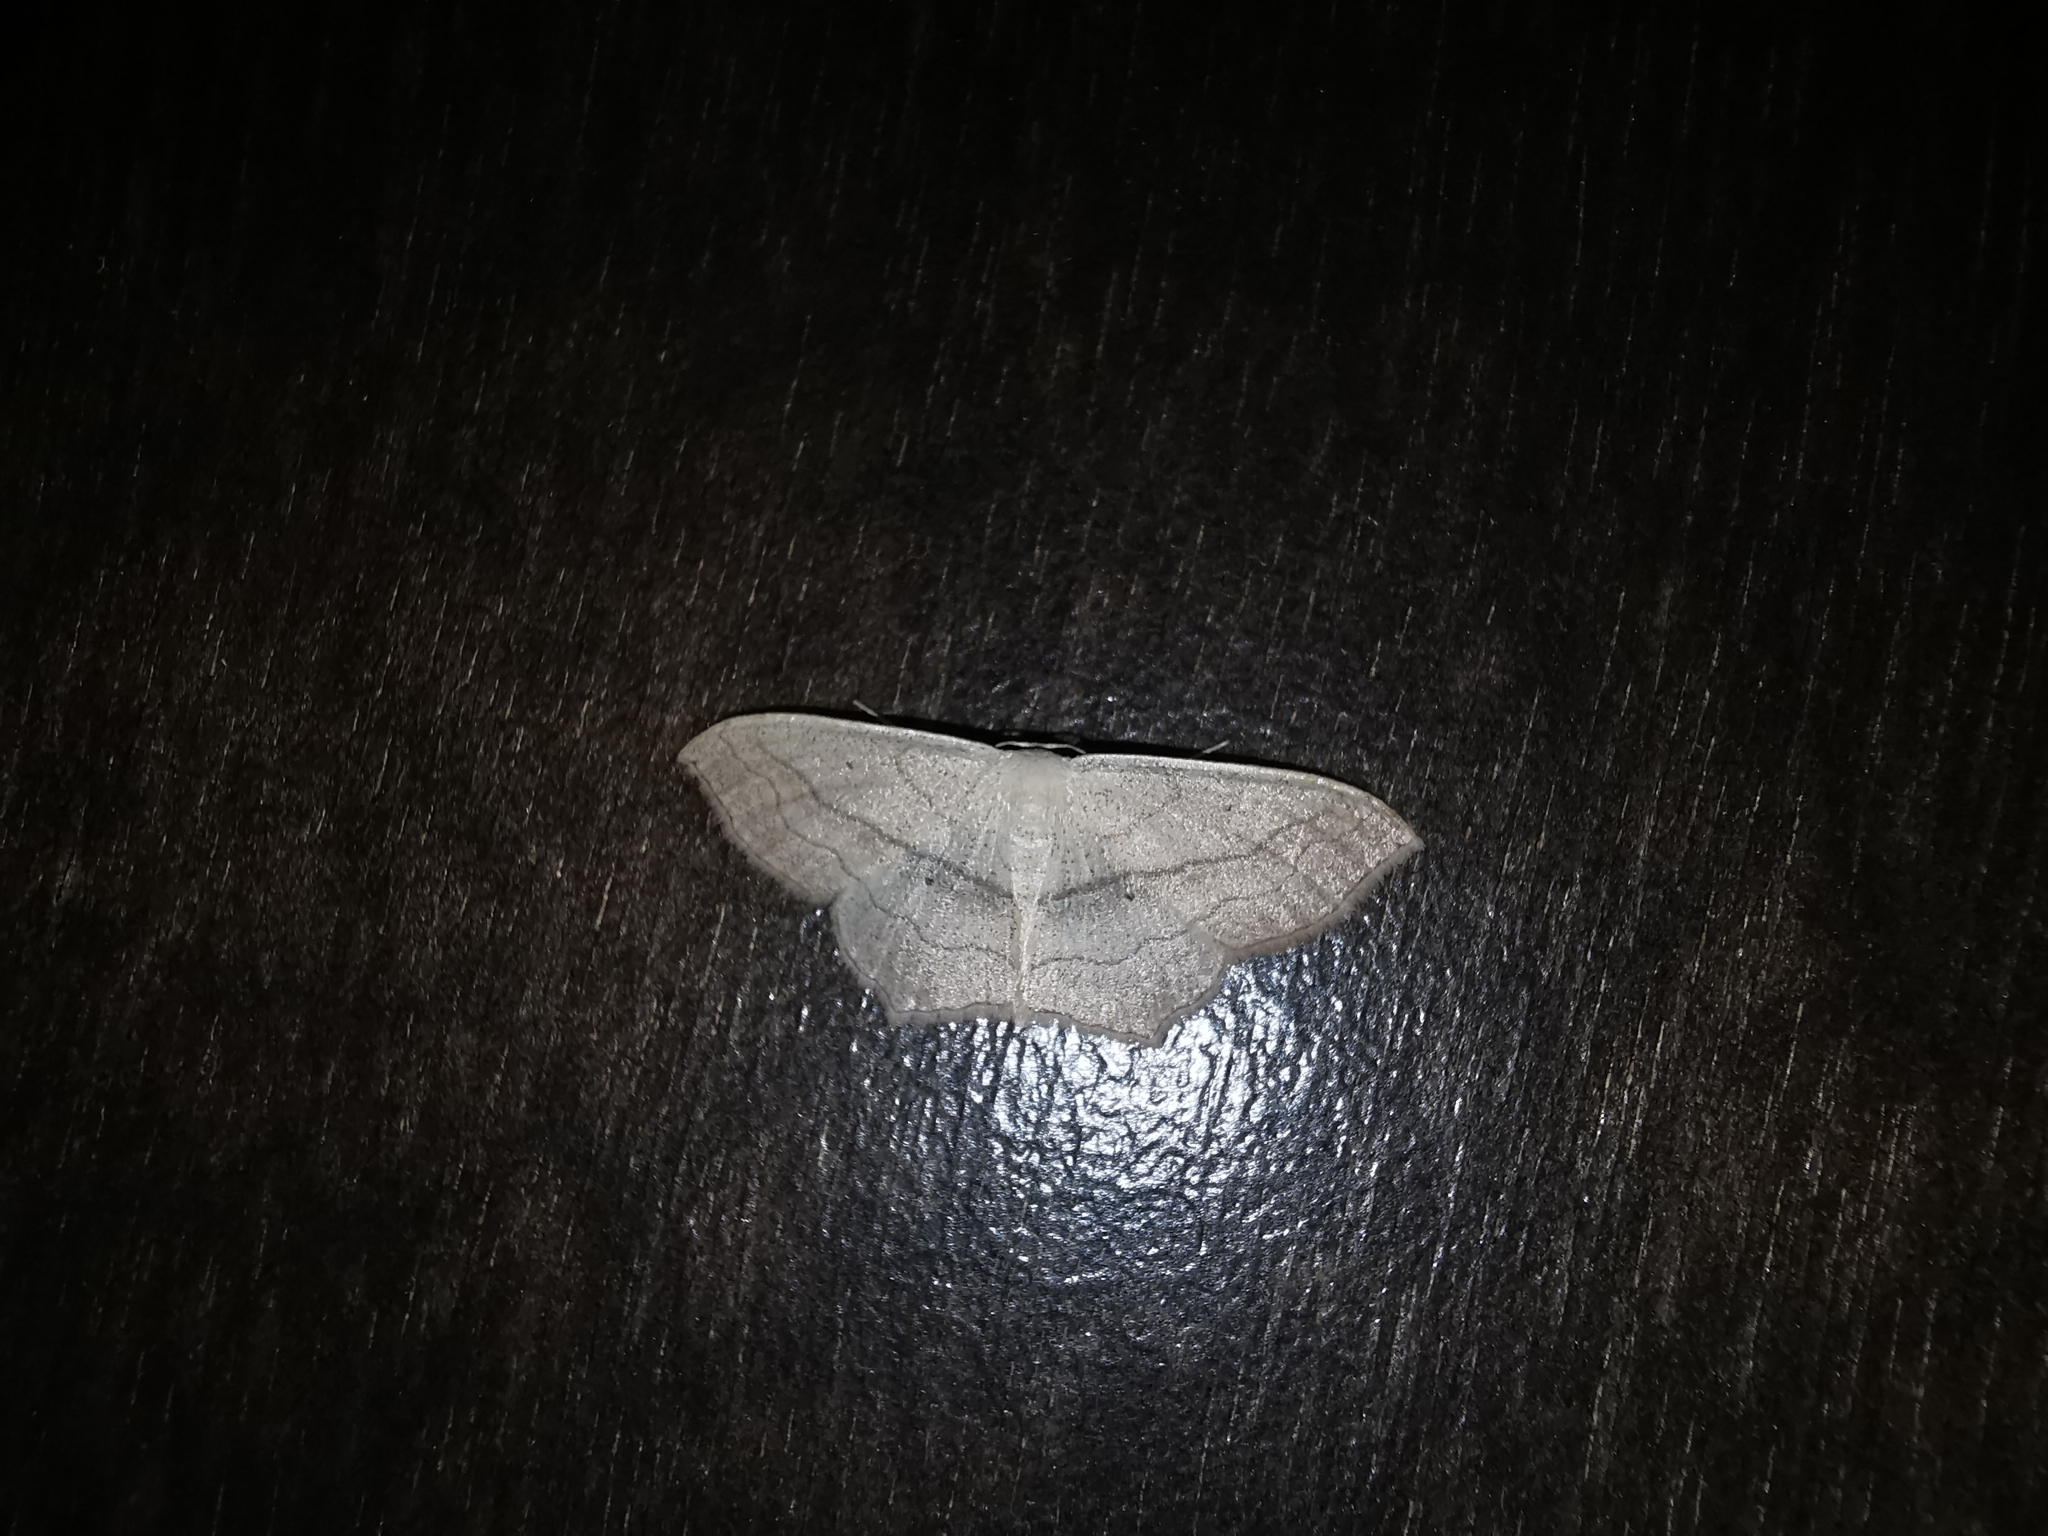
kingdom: Animalia
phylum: Arthropoda
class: Insecta
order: Lepidoptera
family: Geometridae
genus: Scopula
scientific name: Scopula imitaria
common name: Small blood-vein
